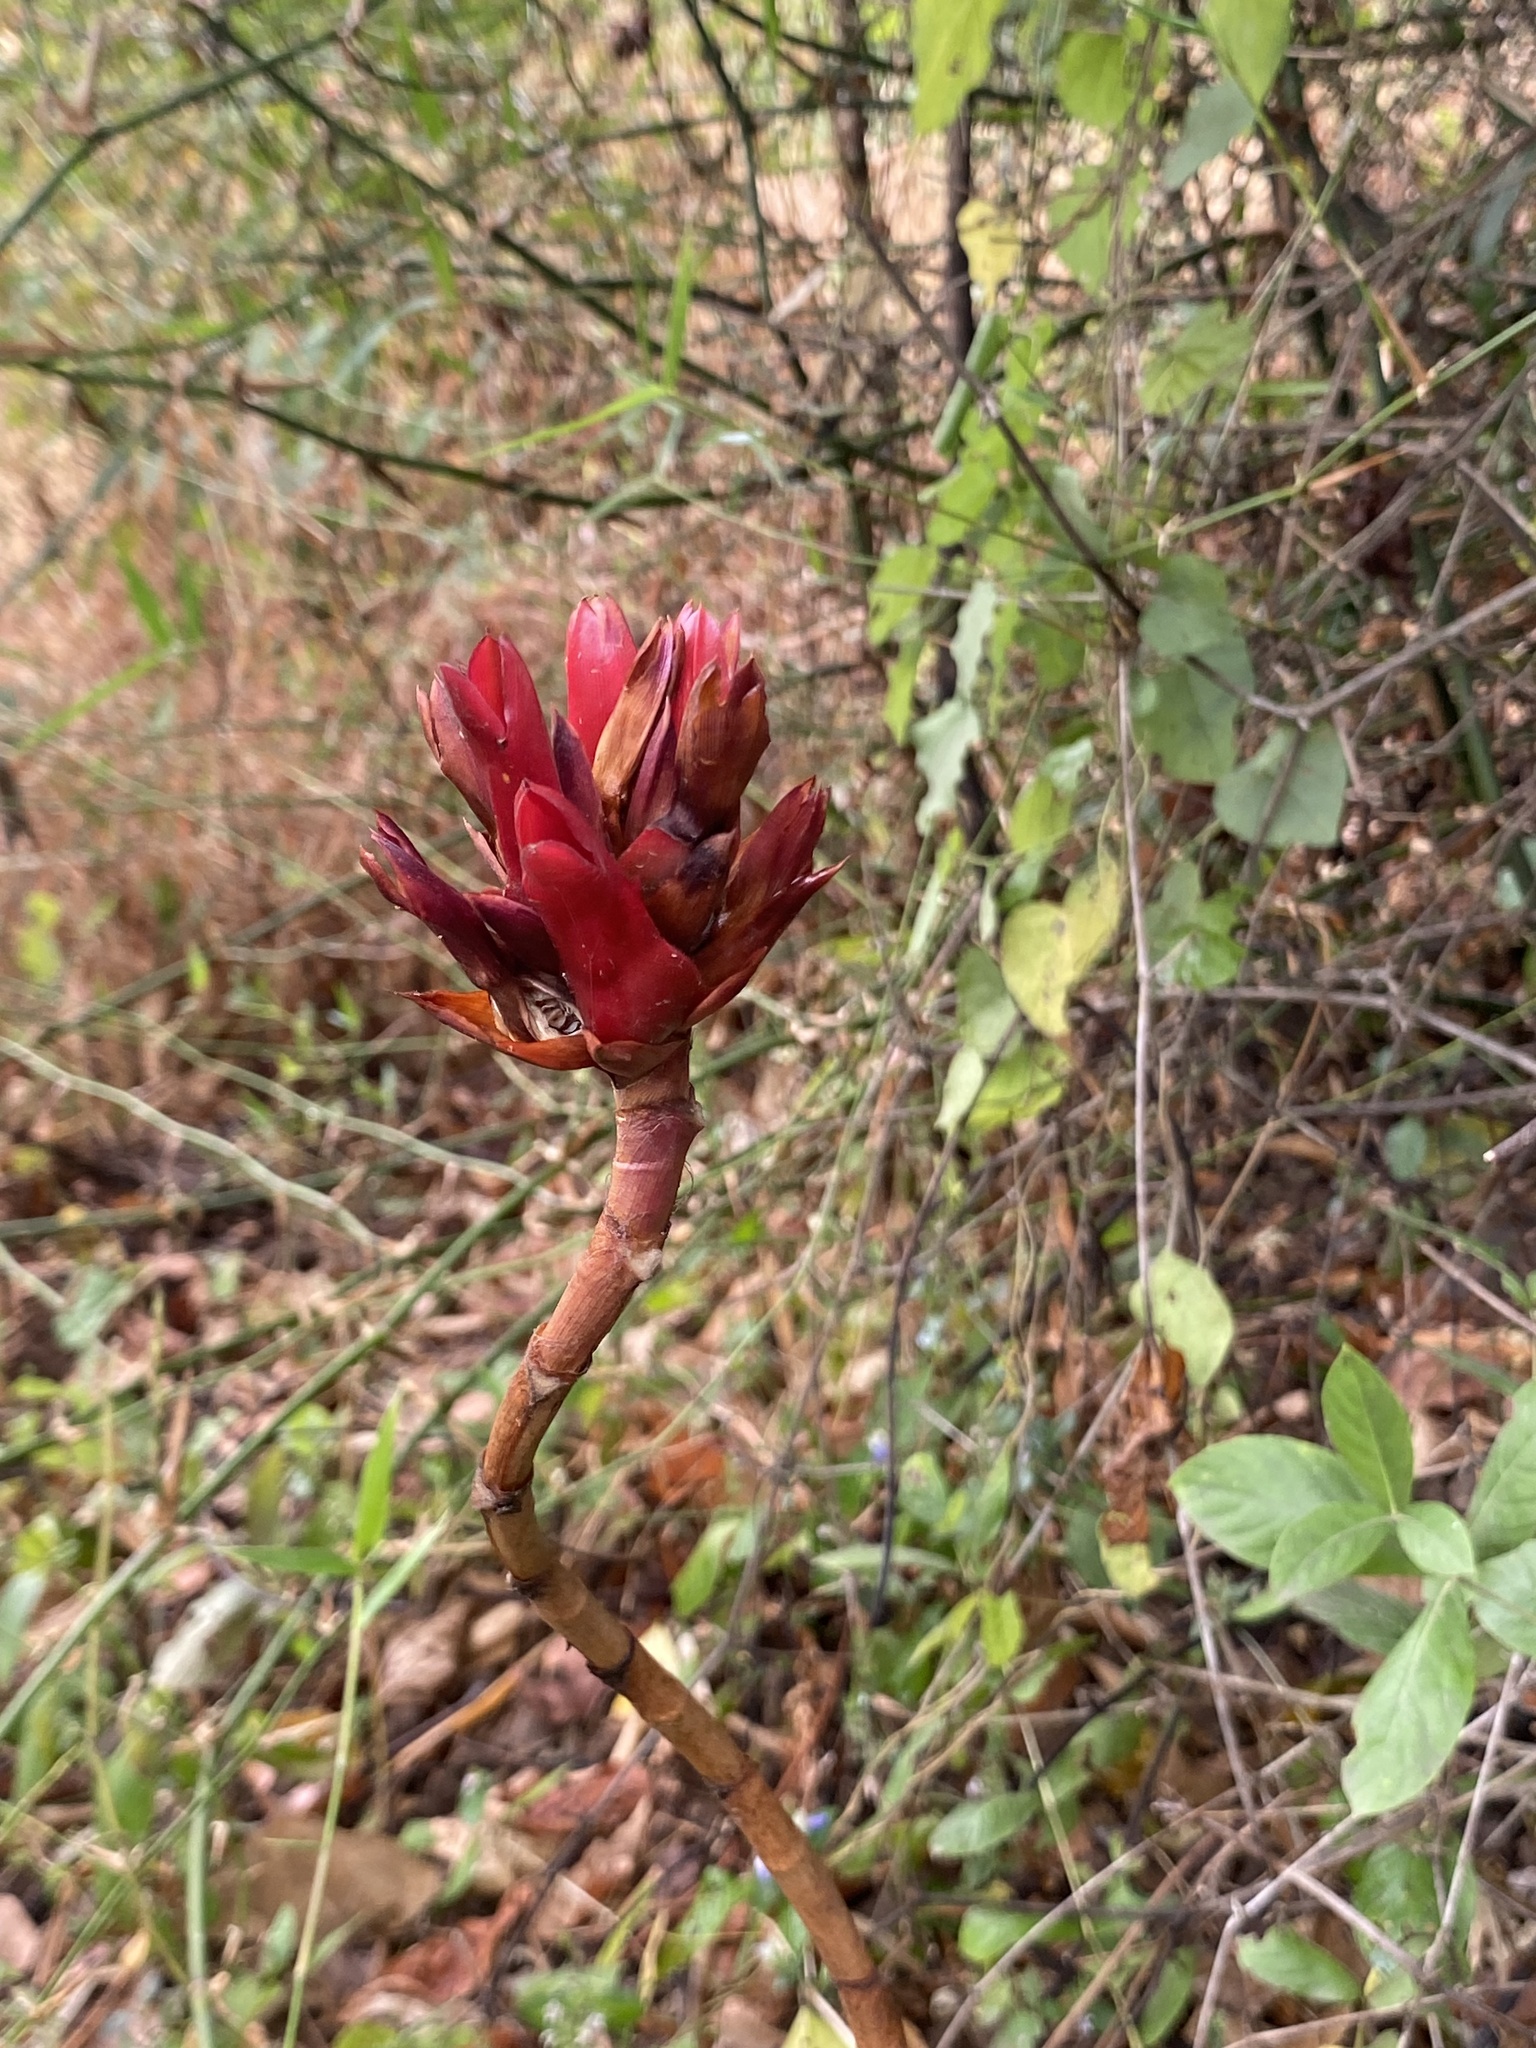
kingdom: Plantae
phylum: Tracheophyta
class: Liliopsida
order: Zingiberales
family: Costaceae
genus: Hellenia
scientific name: Hellenia speciosa
